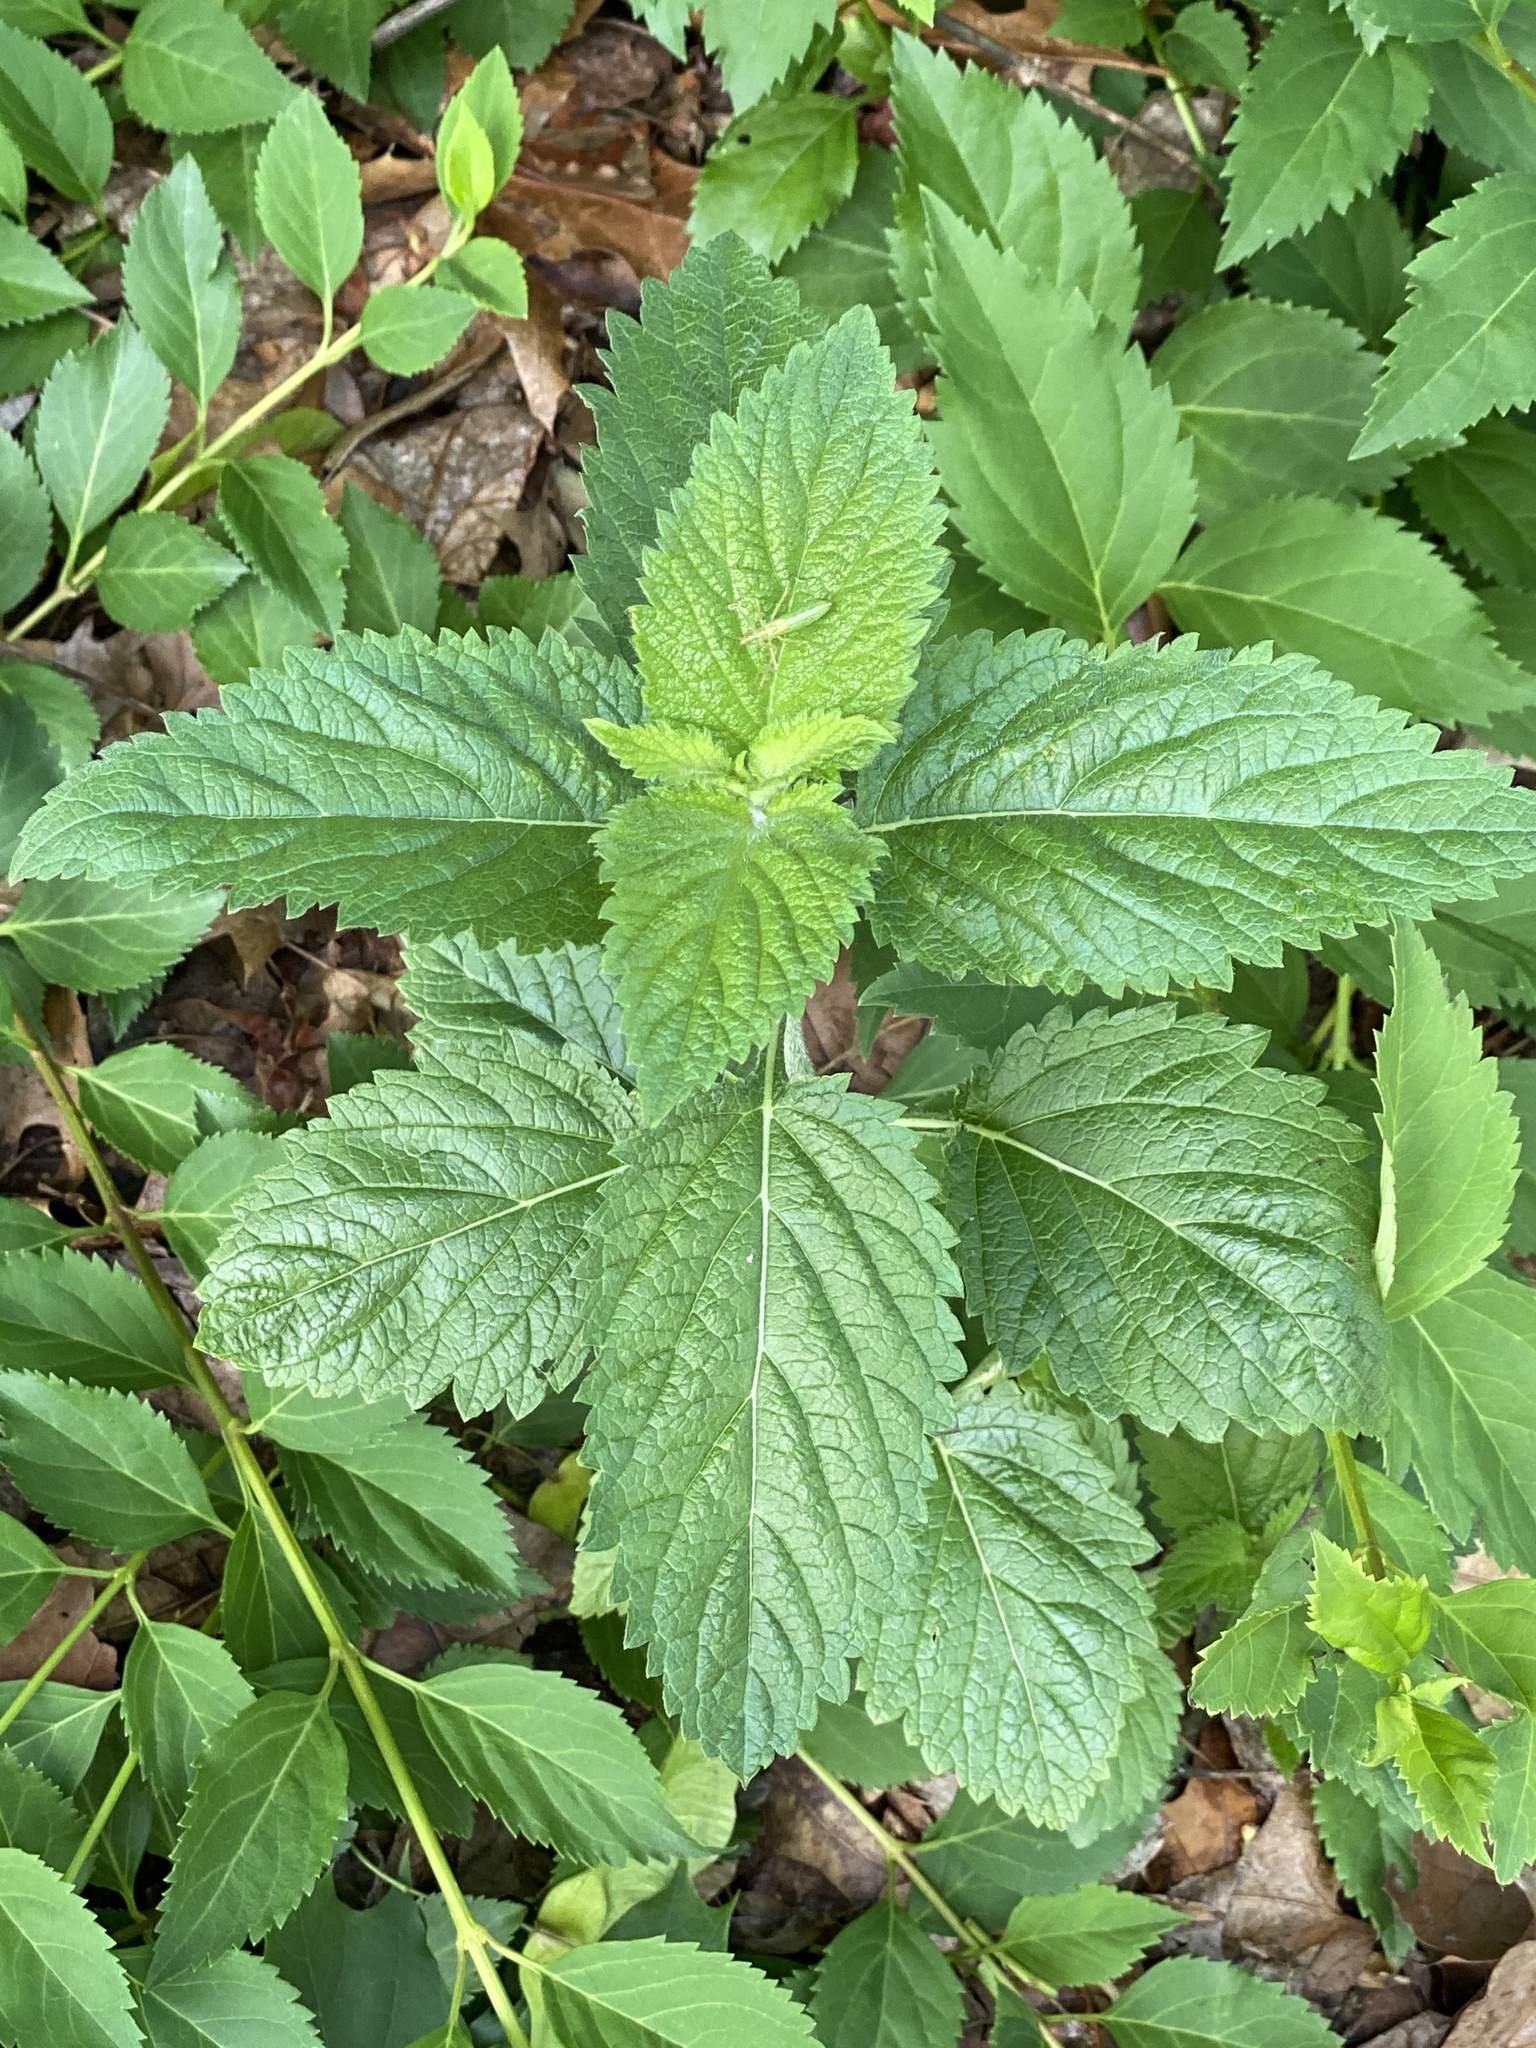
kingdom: Plantae
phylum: Tracheophyta
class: Magnoliopsida
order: Lamiales
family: Verbenaceae
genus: Verbena
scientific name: Verbena urticifolia
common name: Nettle-leaved vervain
